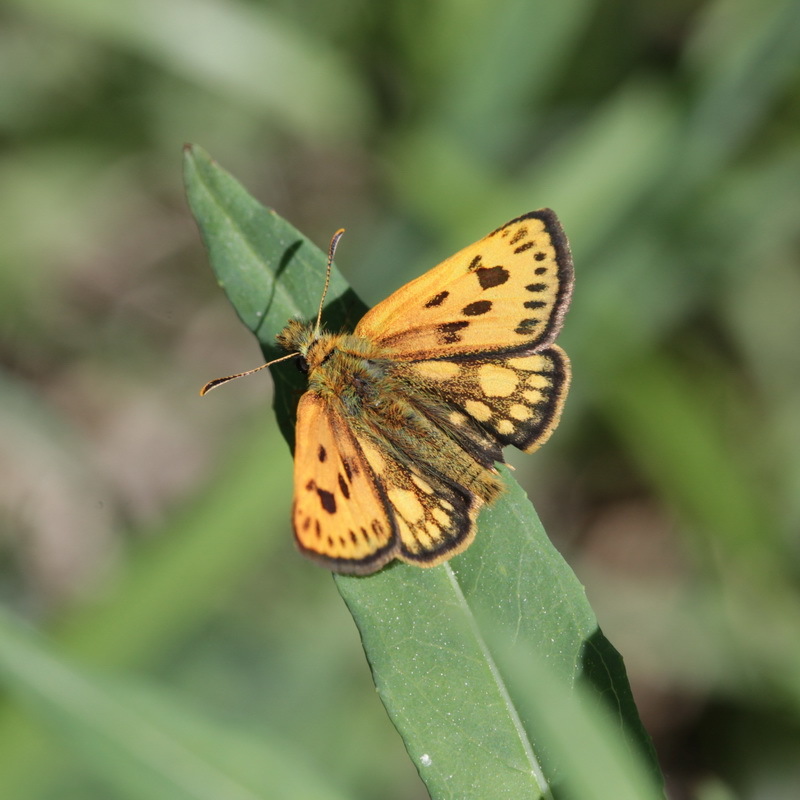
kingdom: Animalia
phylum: Arthropoda
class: Insecta
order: Lepidoptera
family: Hesperiidae
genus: Carterocephalus
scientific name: Carterocephalus silvicola
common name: Northern chequered skipper
